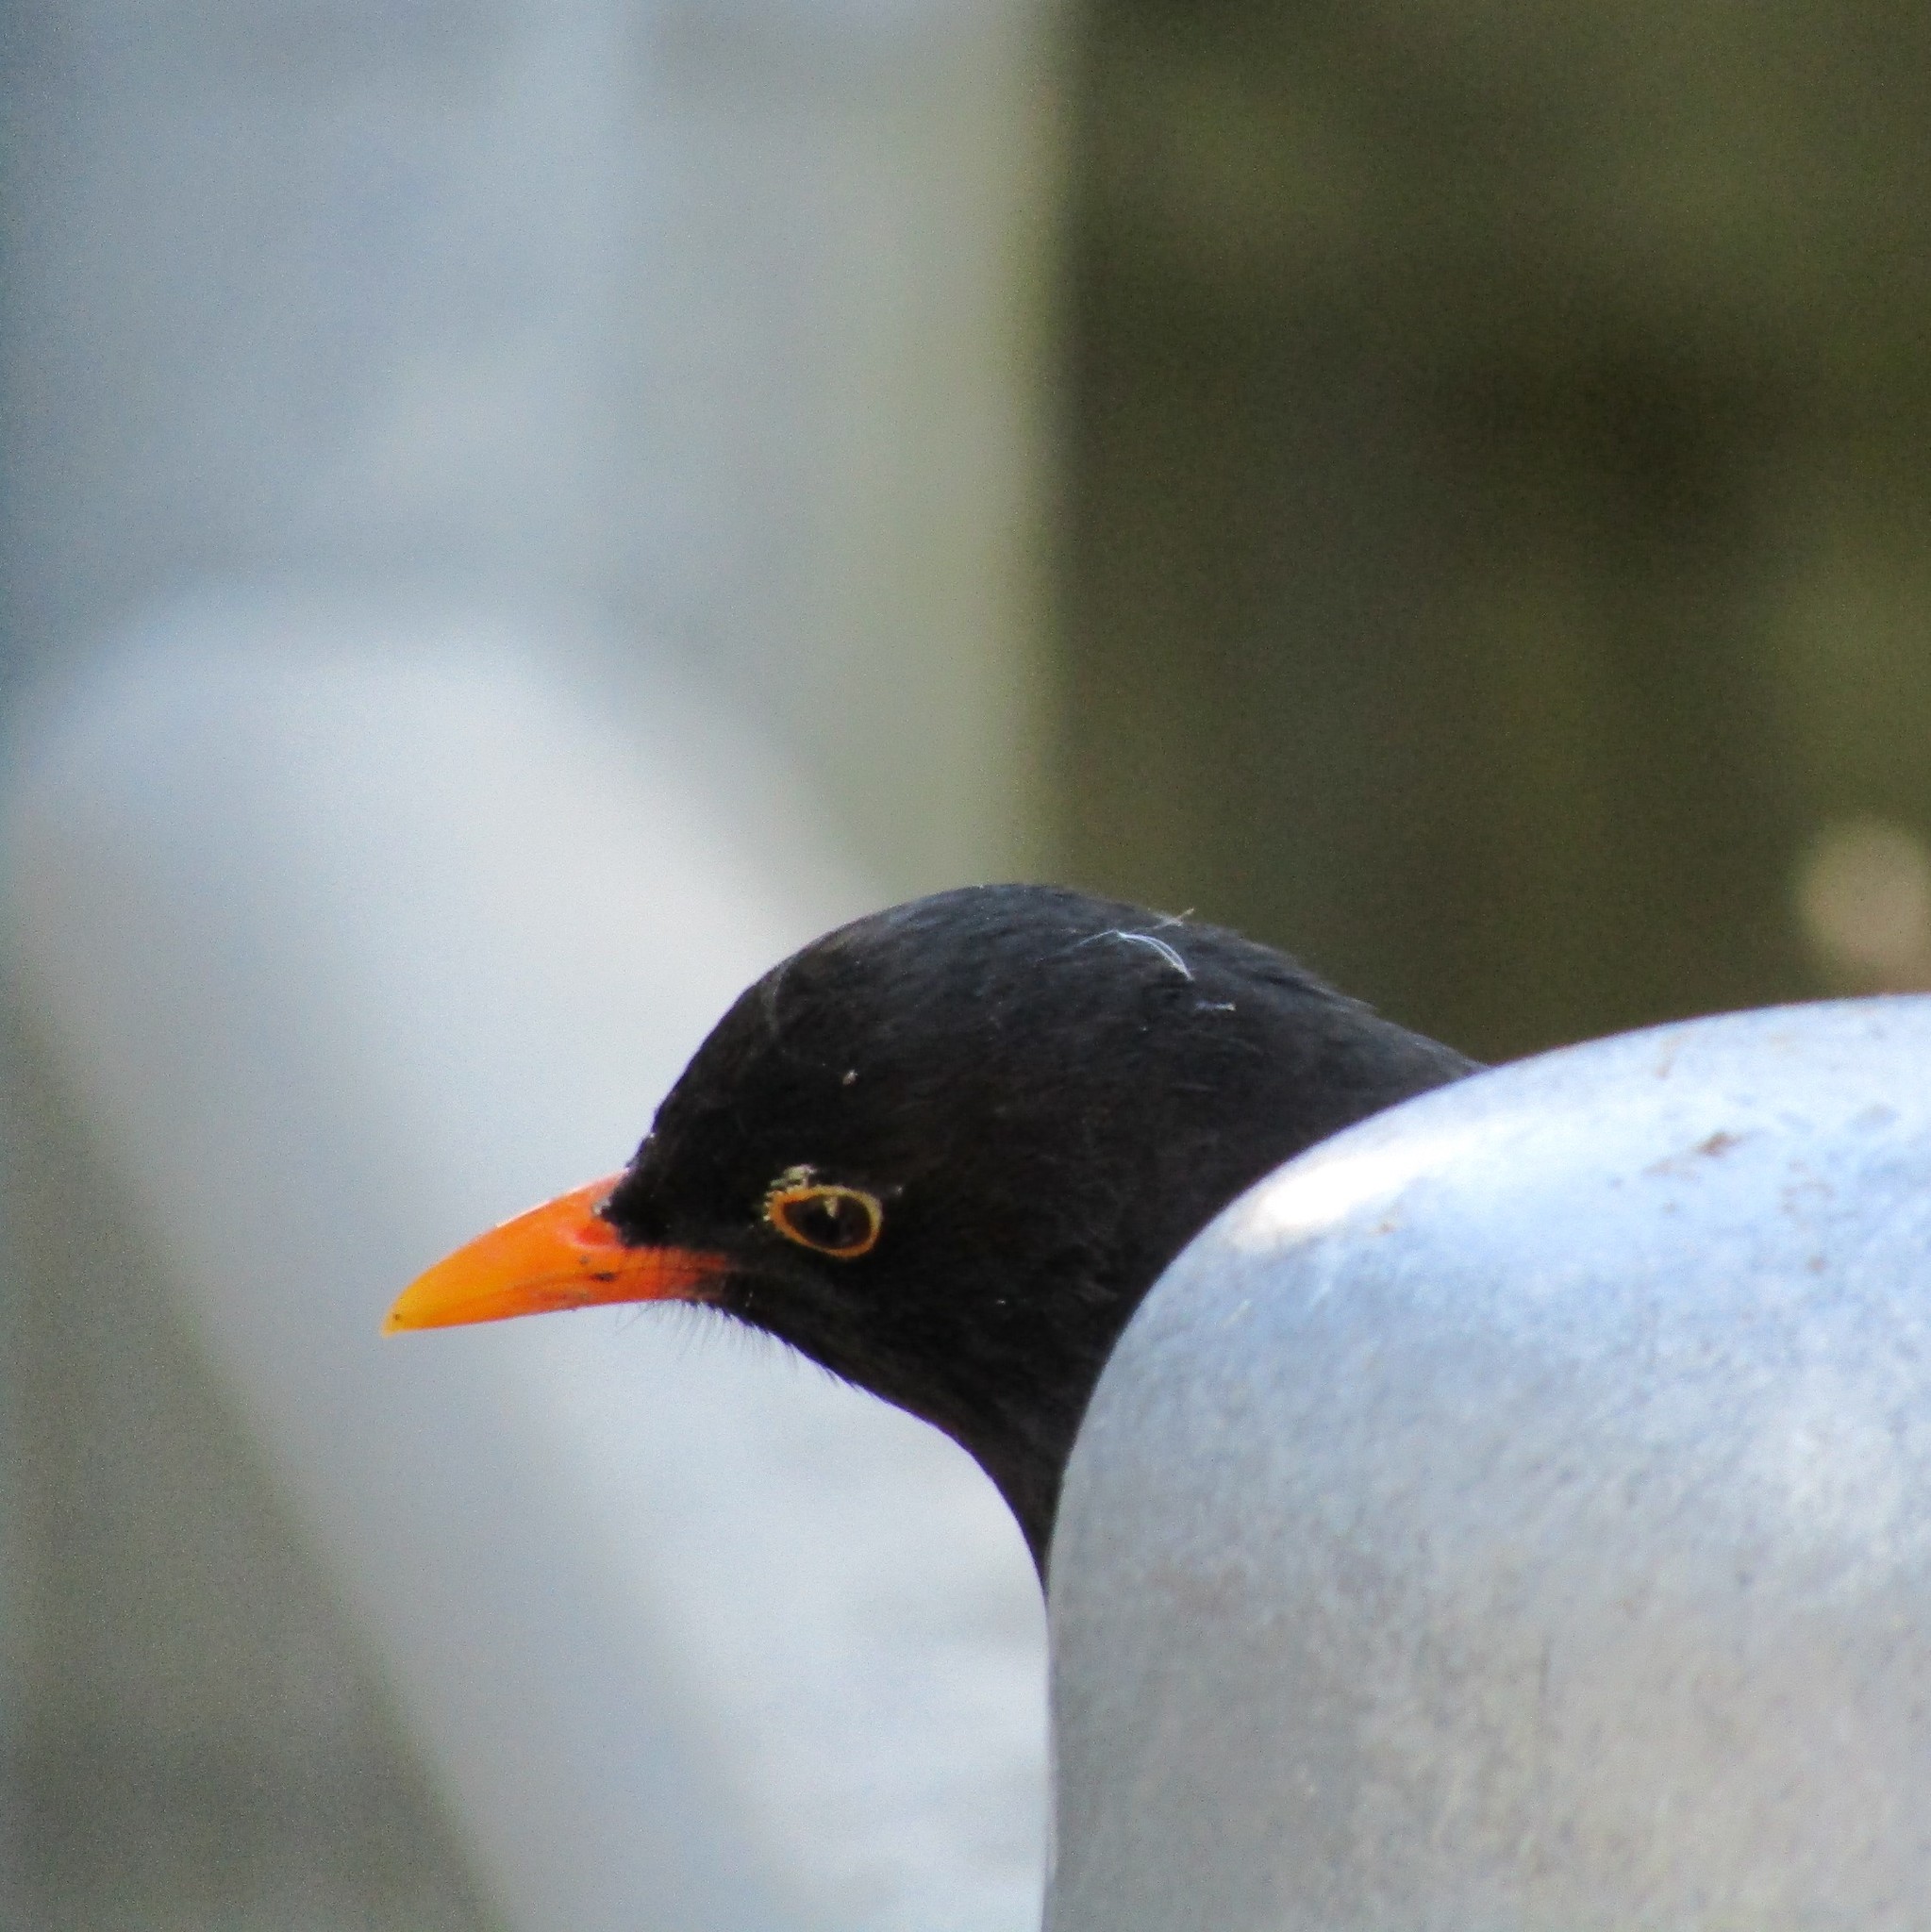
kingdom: Animalia
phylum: Chordata
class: Aves
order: Passeriformes
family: Turdidae
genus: Turdus
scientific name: Turdus merula
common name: Common blackbird
